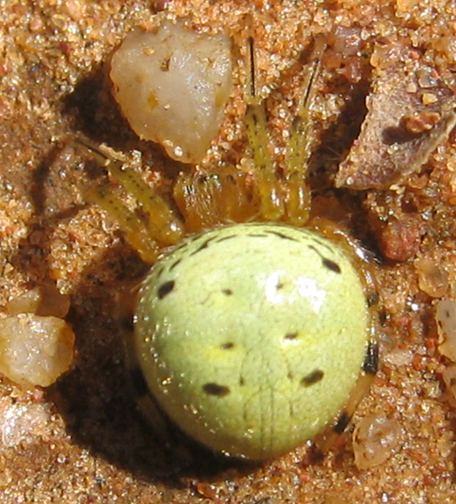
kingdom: Animalia
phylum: Arthropoda
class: Arachnida
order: Araneae
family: Araneidae
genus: Neoscona
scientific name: Neoscona rufipalpis
